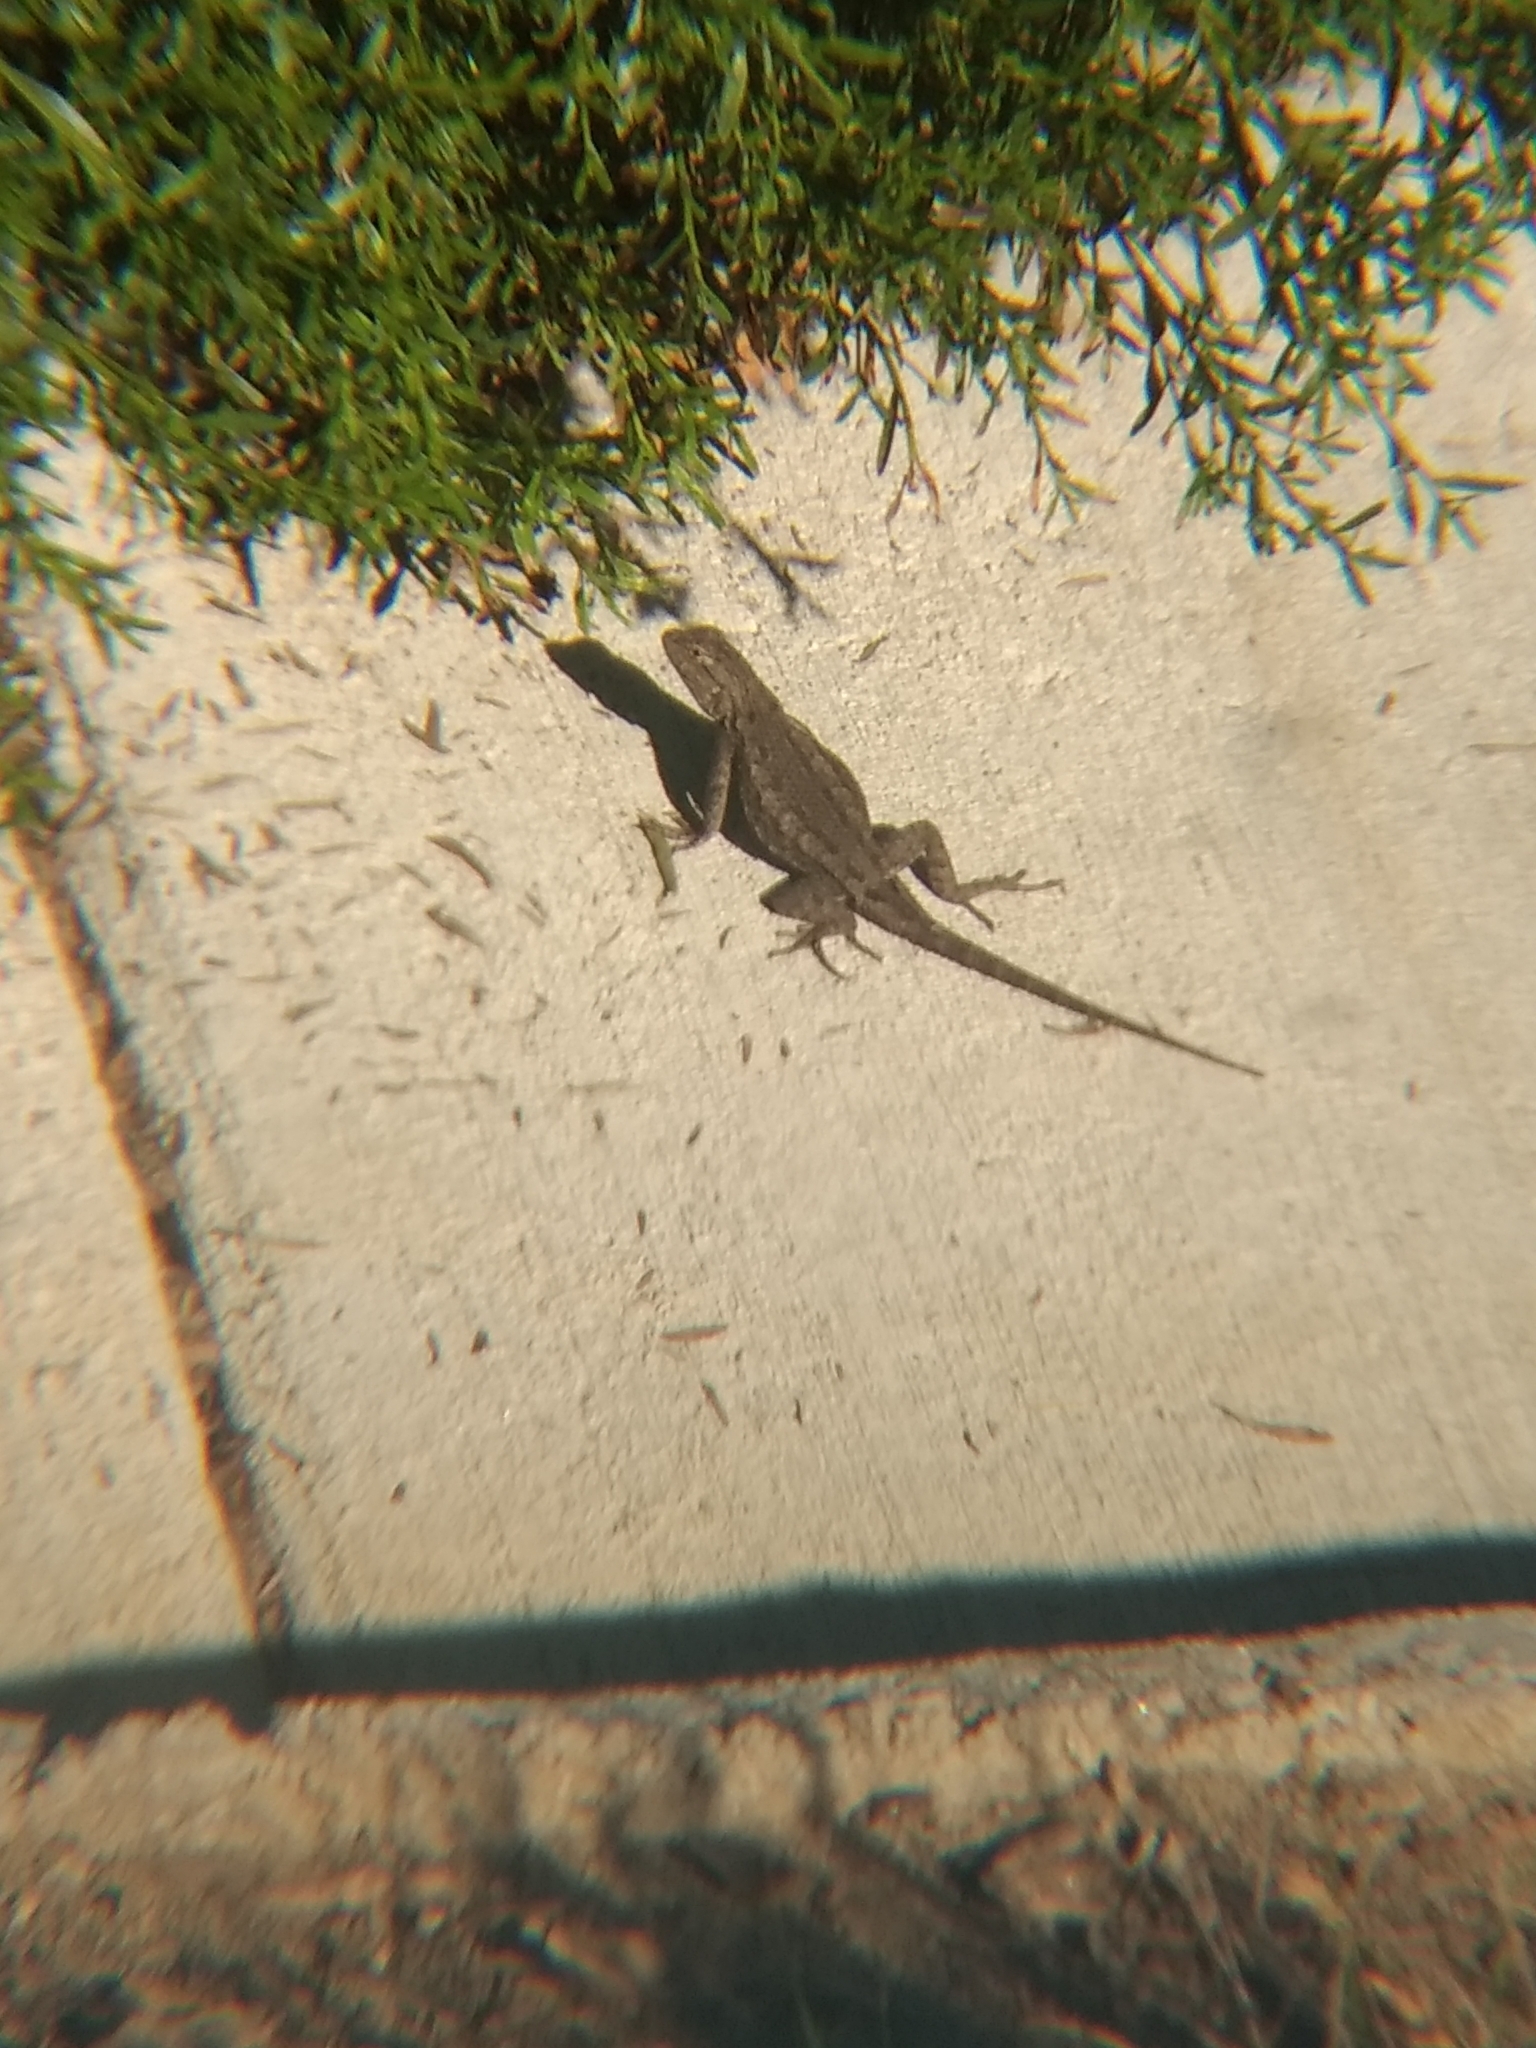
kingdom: Animalia
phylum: Chordata
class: Squamata
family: Phrynosomatidae
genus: Sceloporus
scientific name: Sceloporus occidentalis
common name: Western fence lizard
